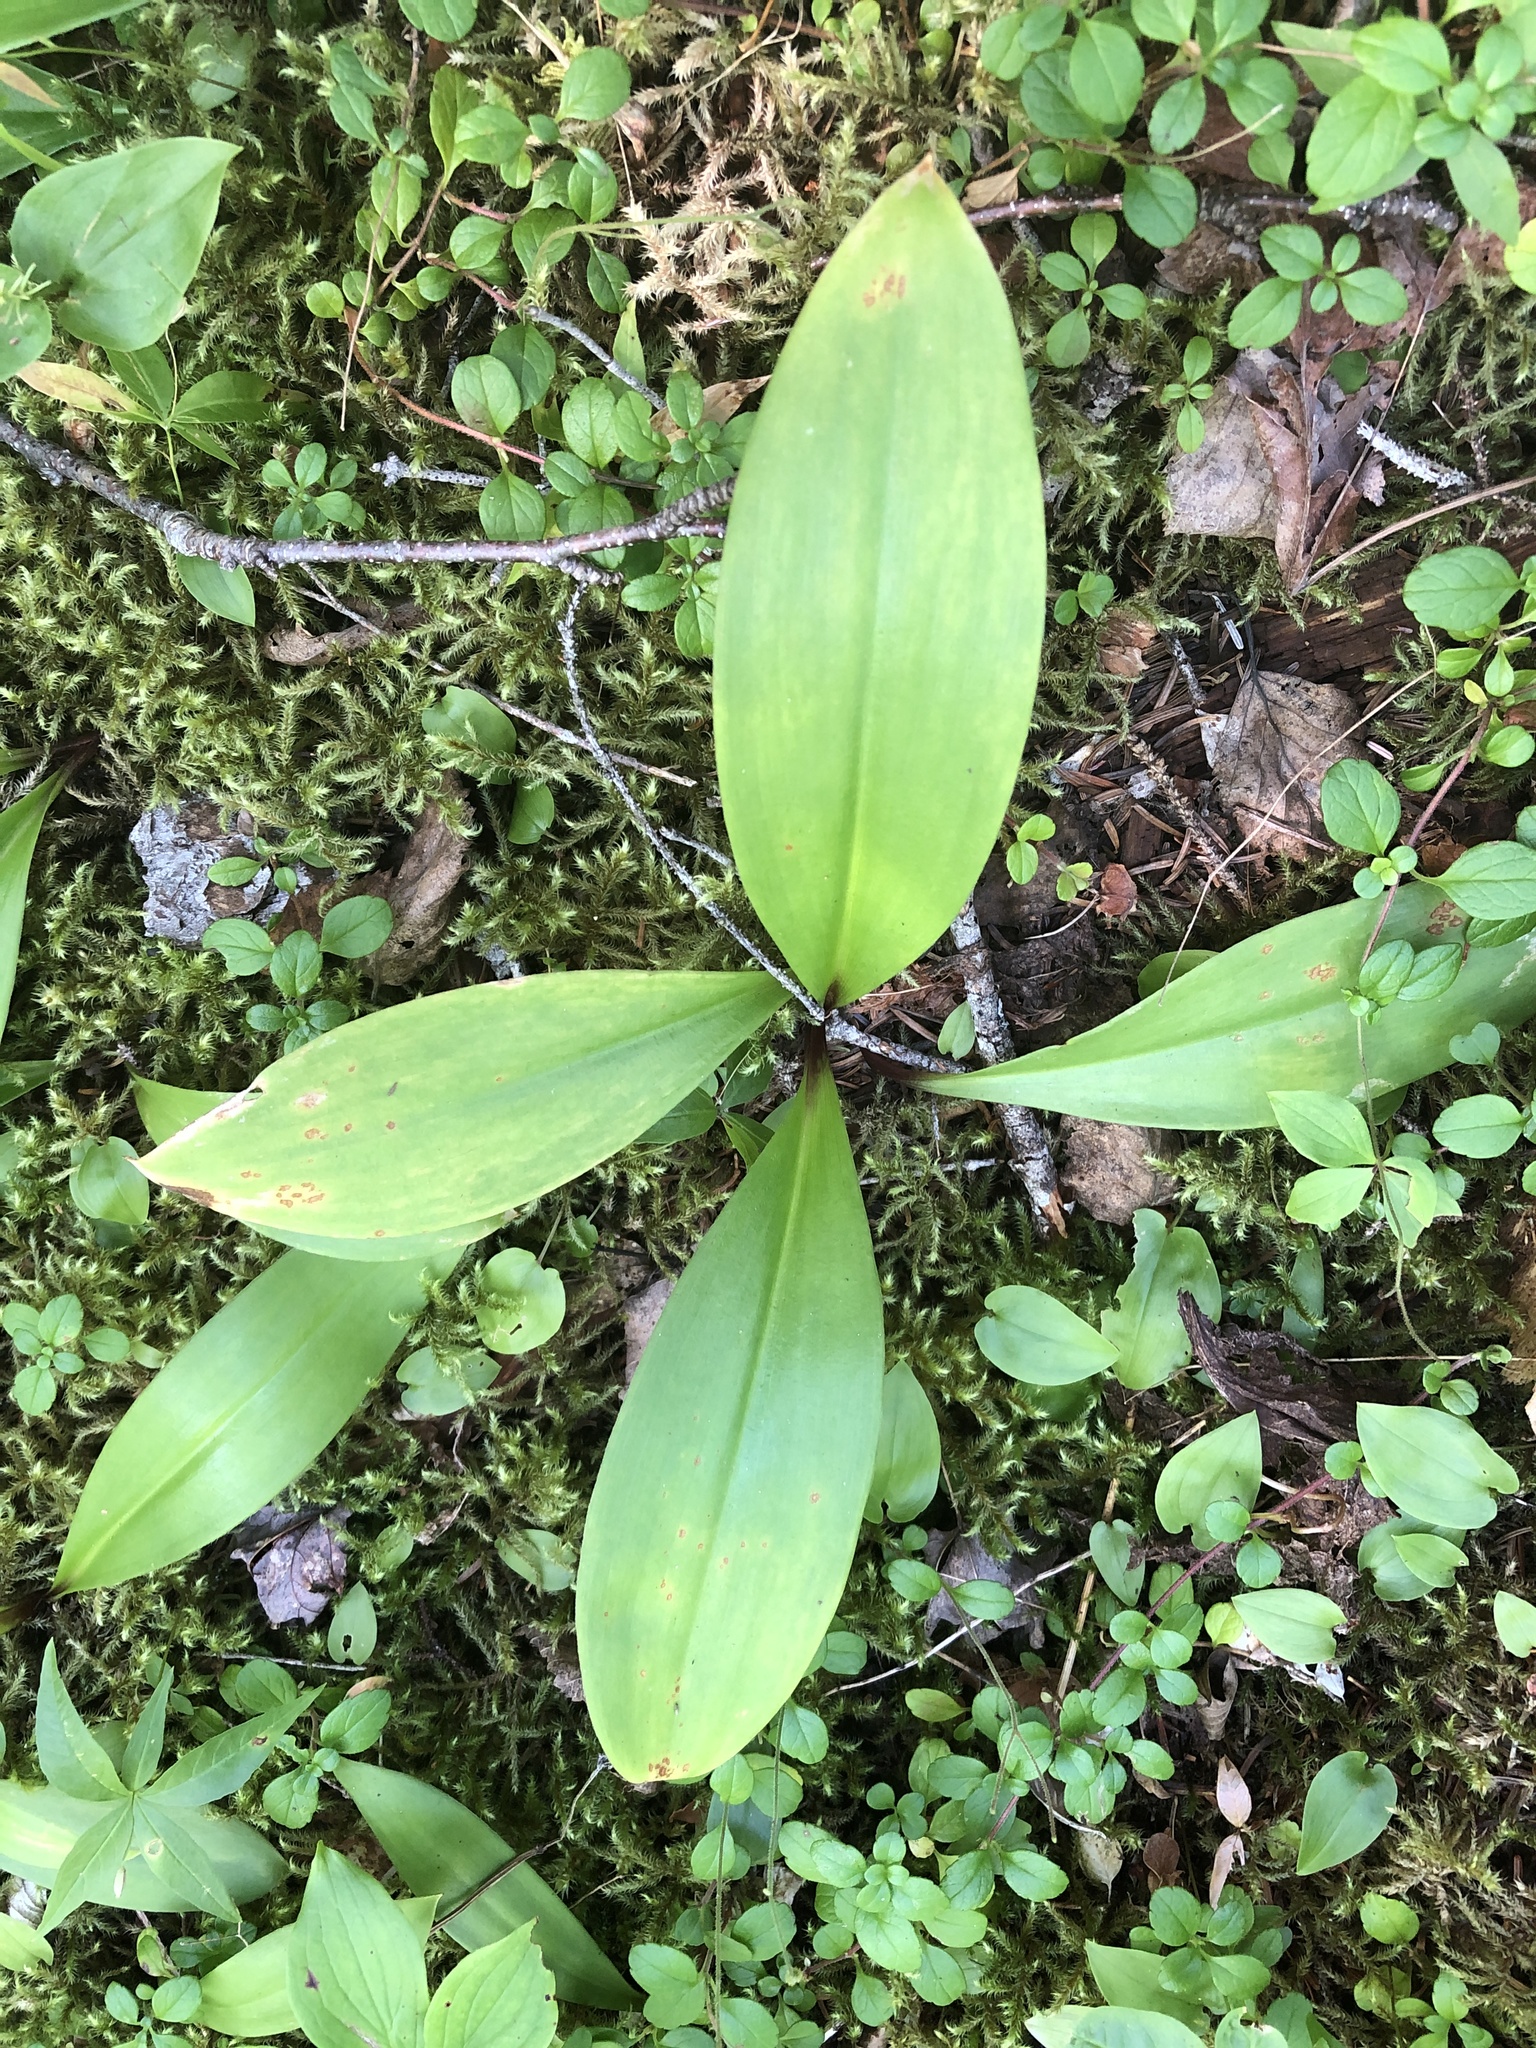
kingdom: Plantae
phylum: Tracheophyta
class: Liliopsida
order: Liliales
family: Liliaceae
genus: Clintonia
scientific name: Clintonia borealis
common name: Yellow clintonia
